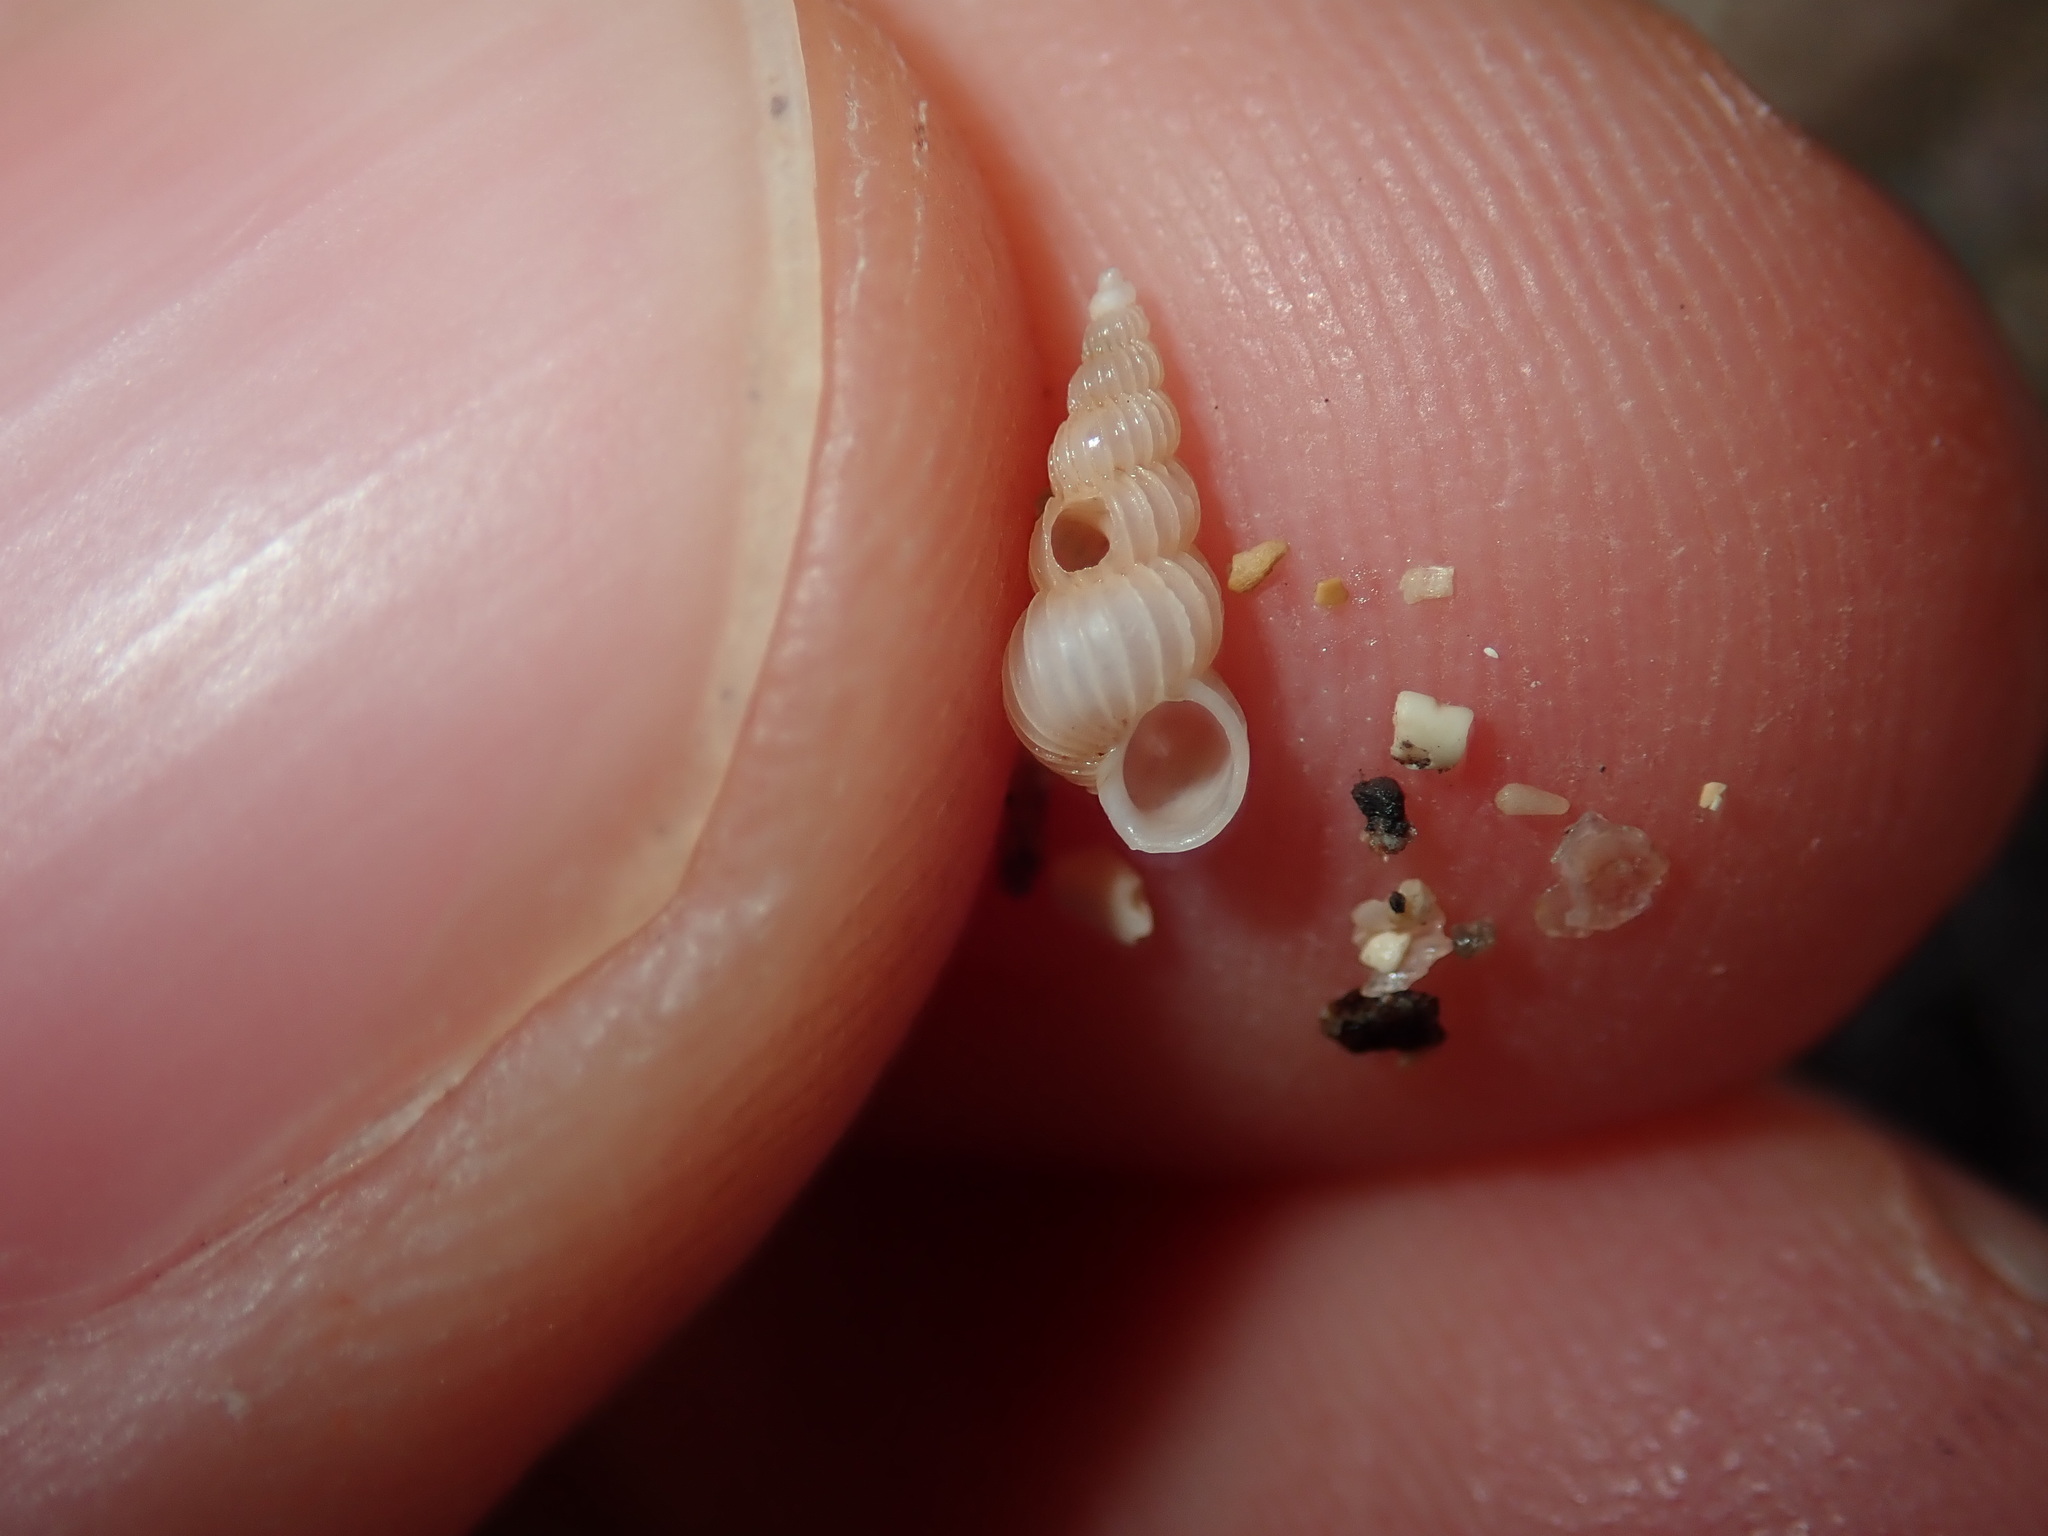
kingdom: Animalia
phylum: Mollusca
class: Gastropoda
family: Epitoniidae
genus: Epitonium
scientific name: Epitonium jukesianum
